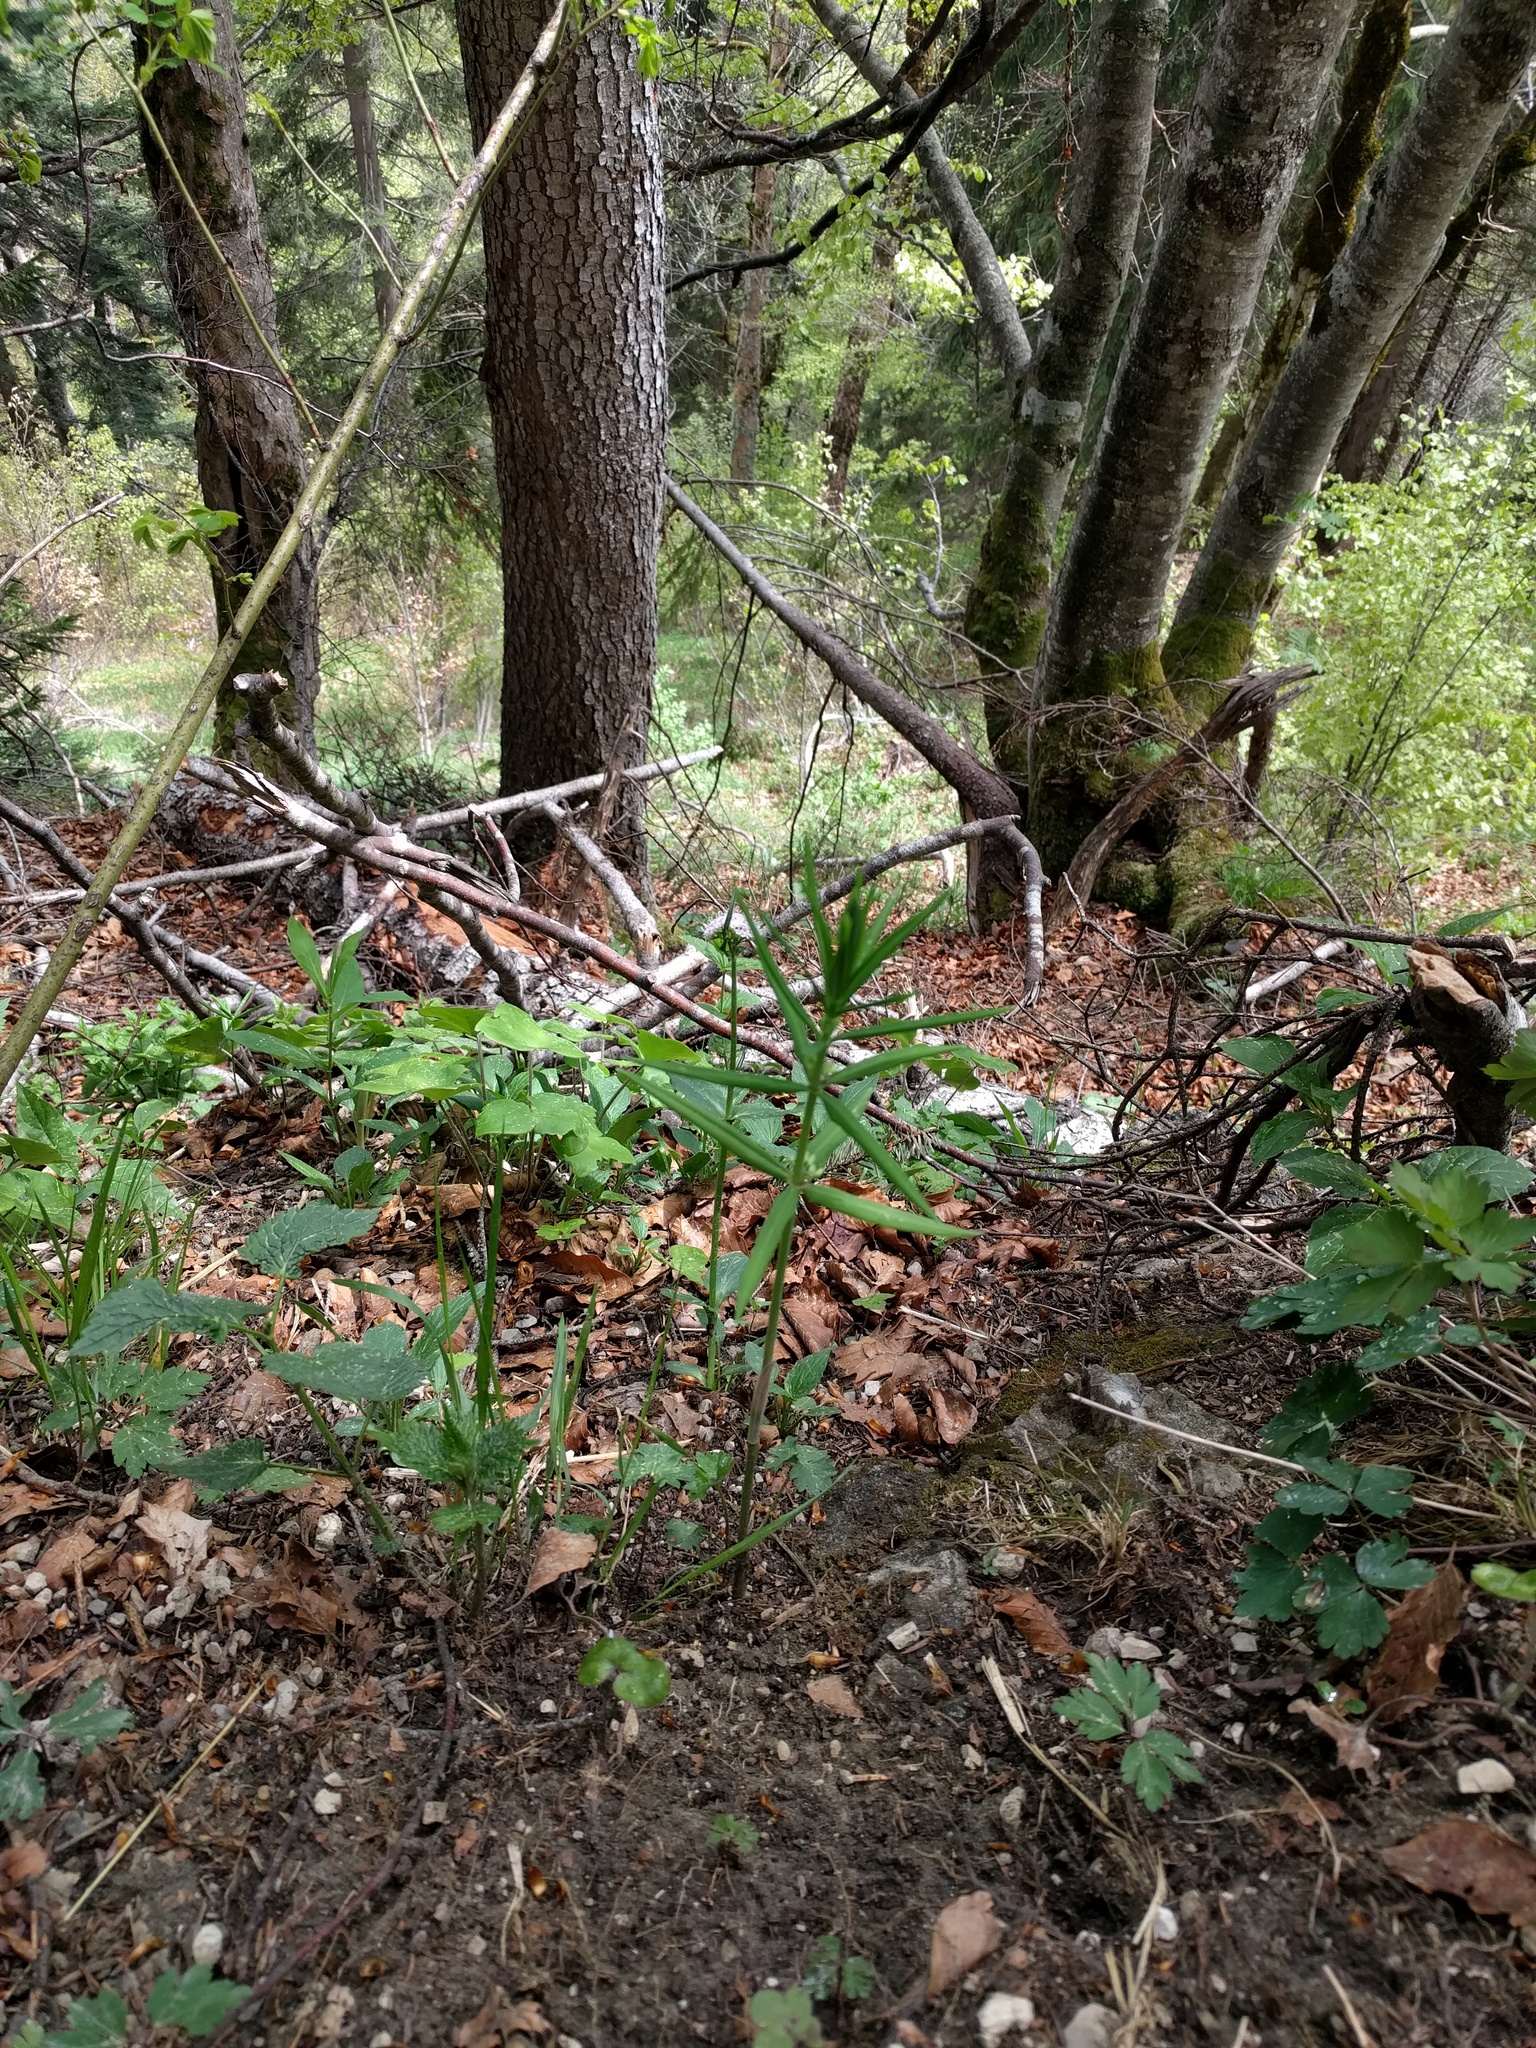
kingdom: Plantae
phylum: Tracheophyta
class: Liliopsida
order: Asparagales
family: Asparagaceae
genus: Polygonatum
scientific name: Polygonatum verticillatum
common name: Whorled solomon's-seal
